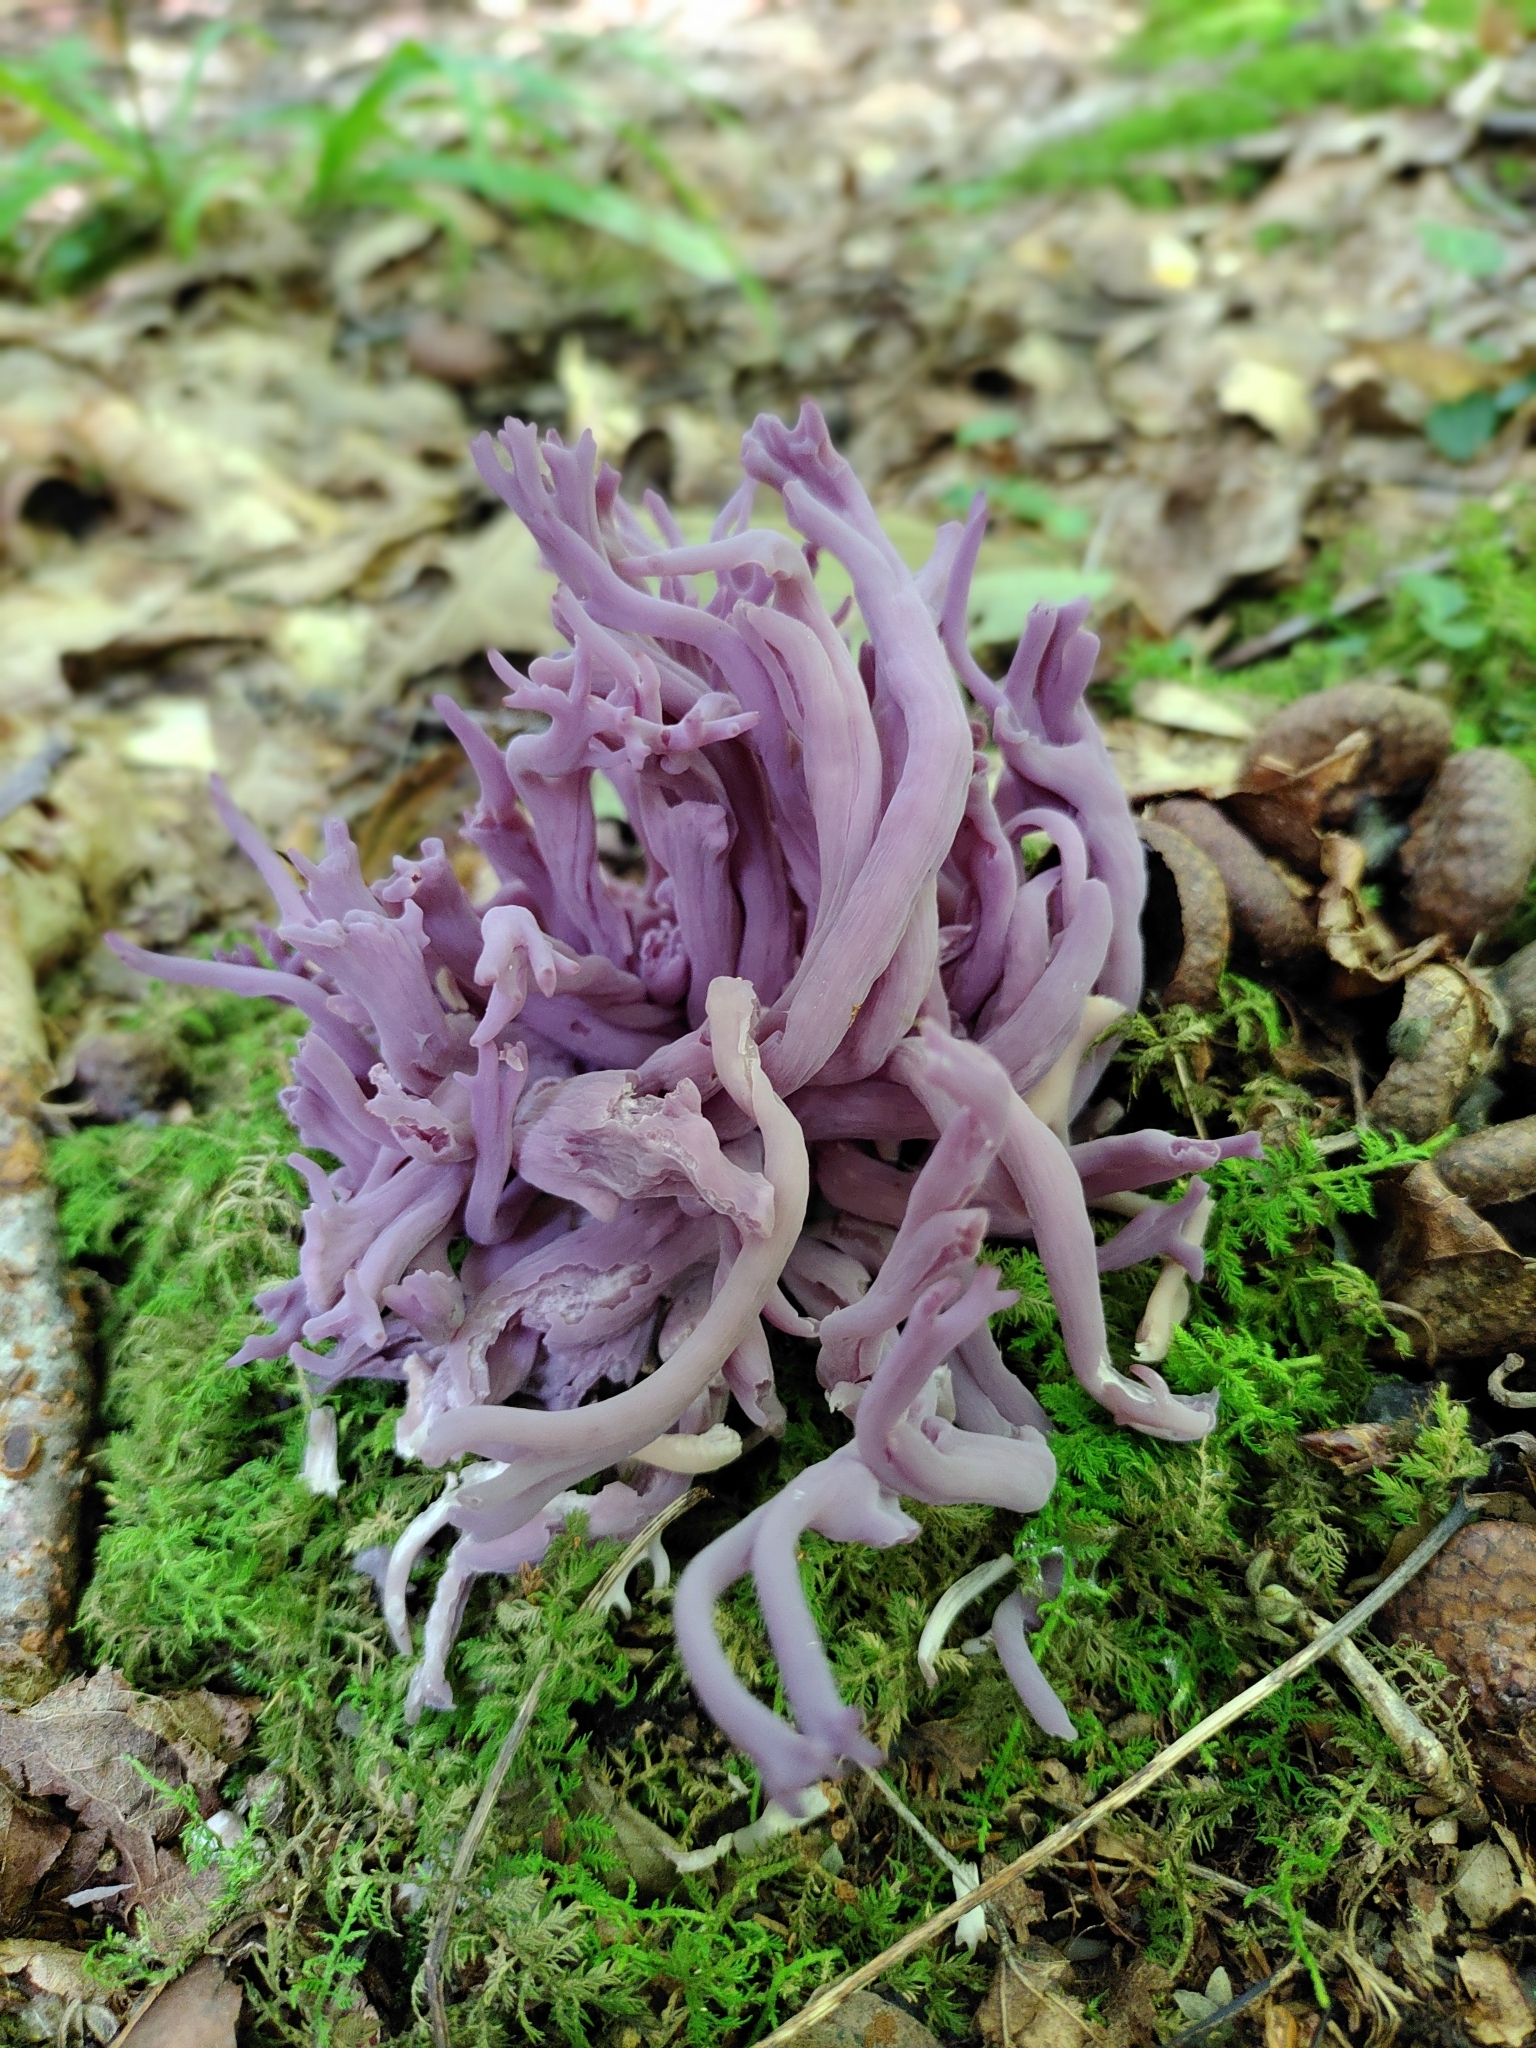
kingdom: Fungi
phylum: Basidiomycota
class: Agaricomycetes
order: Agaricales
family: Clavariaceae
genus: Clavaria
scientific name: Clavaria zollingeri
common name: Violet coral
